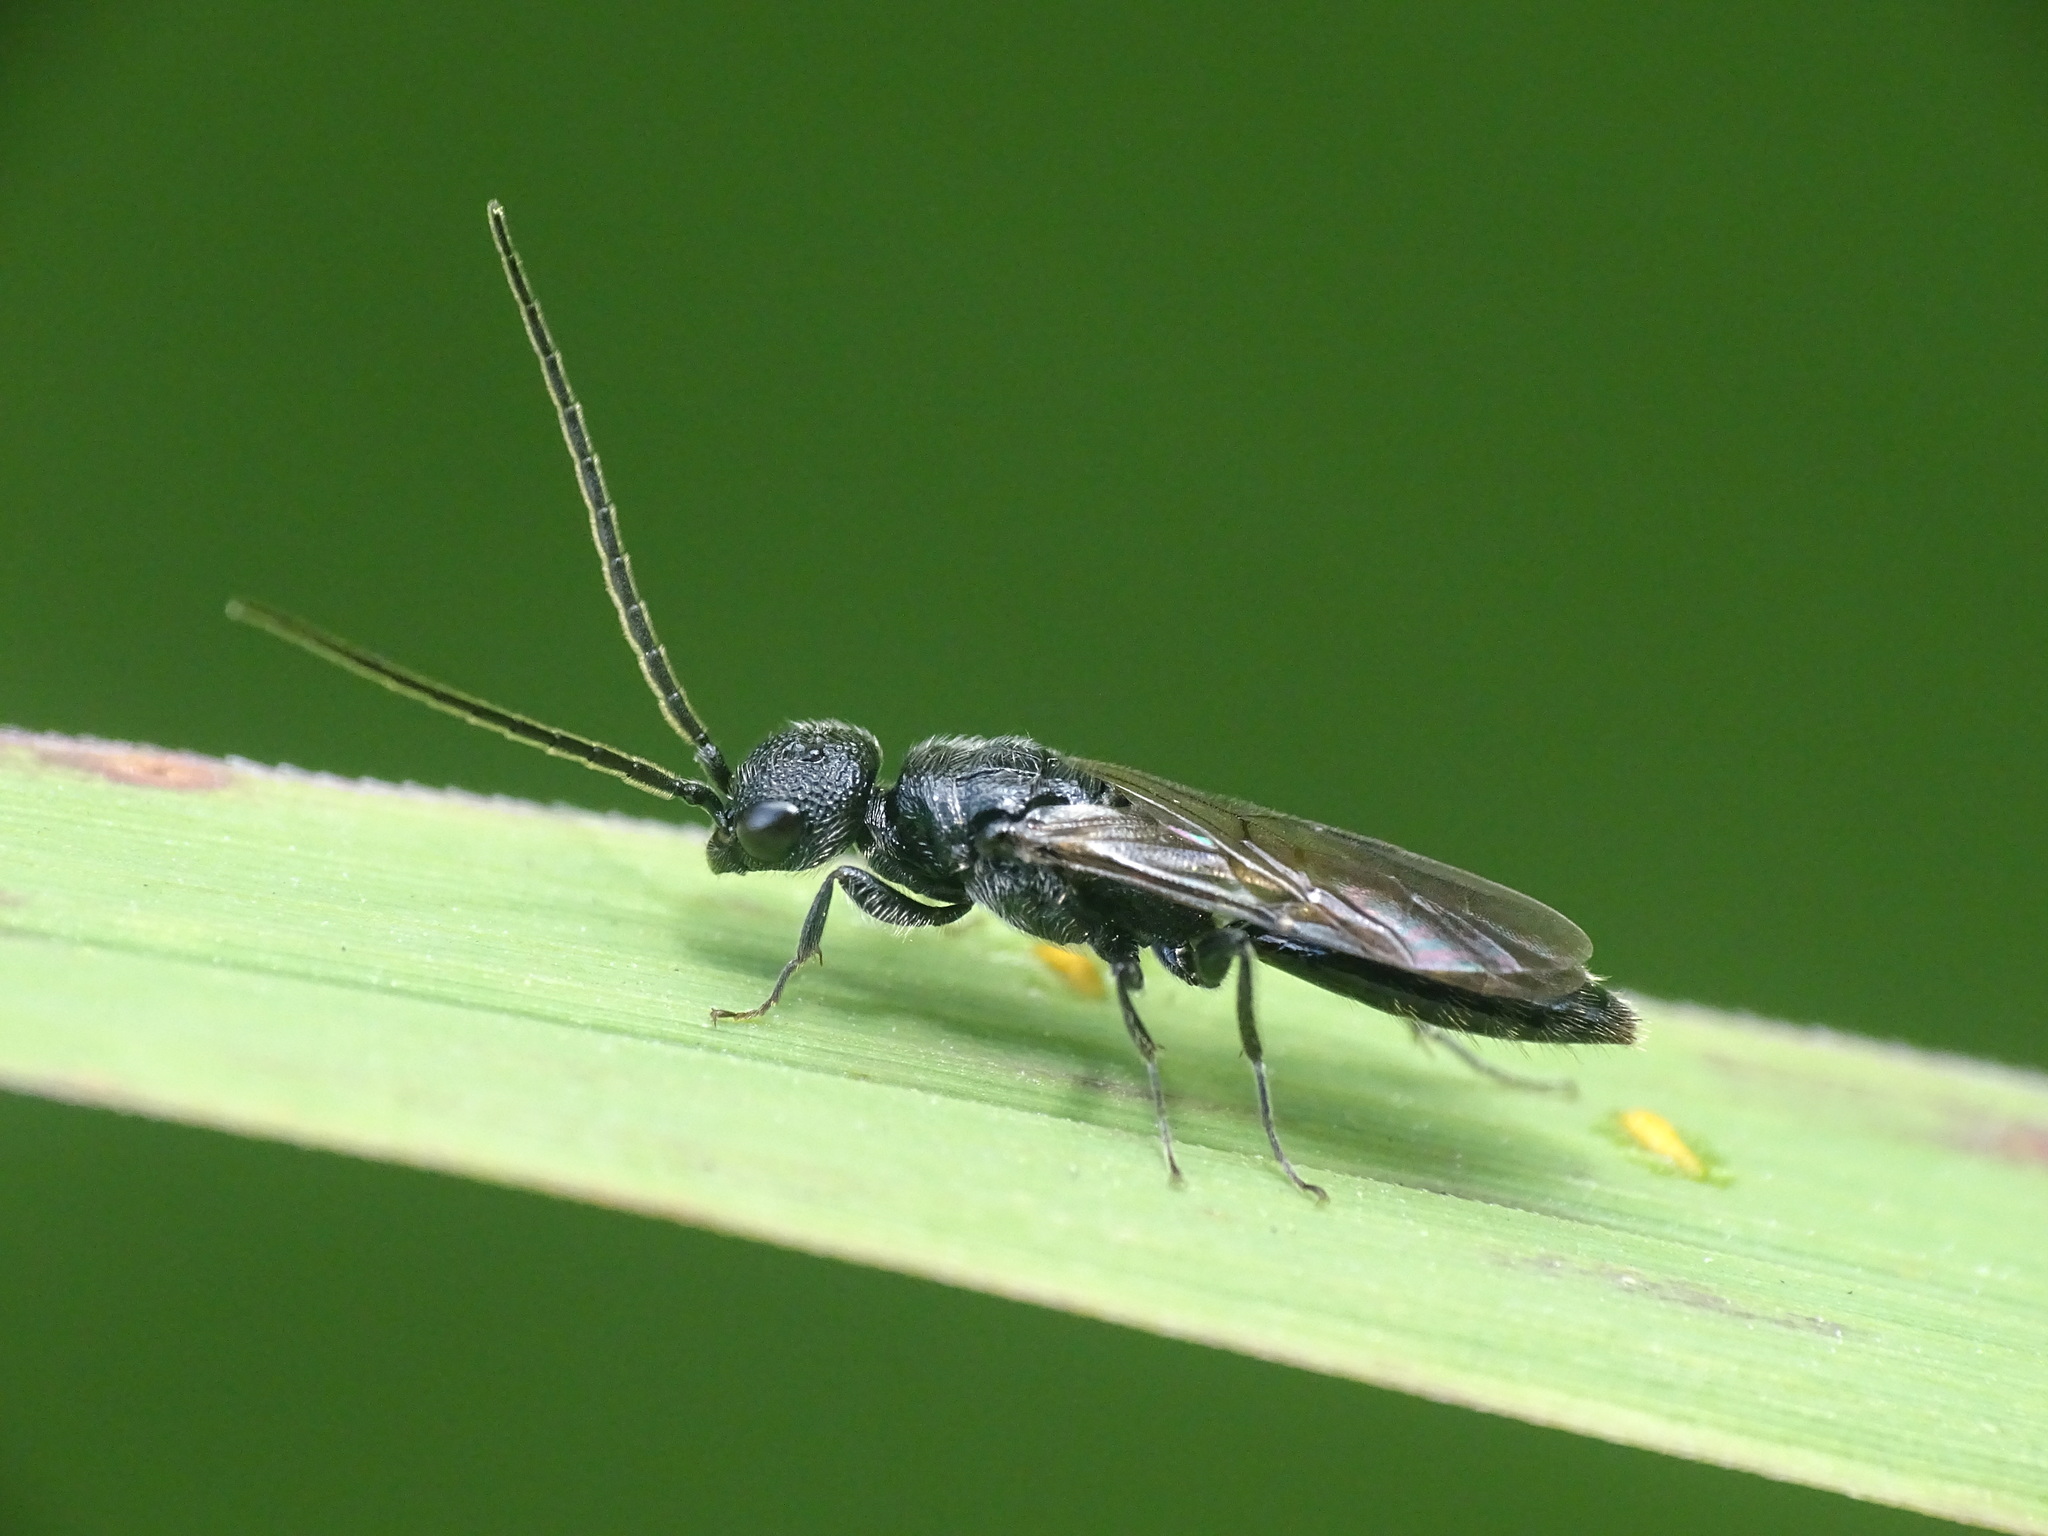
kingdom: Animalia
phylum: Arthropoda
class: Insecta
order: Hymenoptera
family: Bethylidae
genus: Pristepyris
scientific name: Pristepyris
